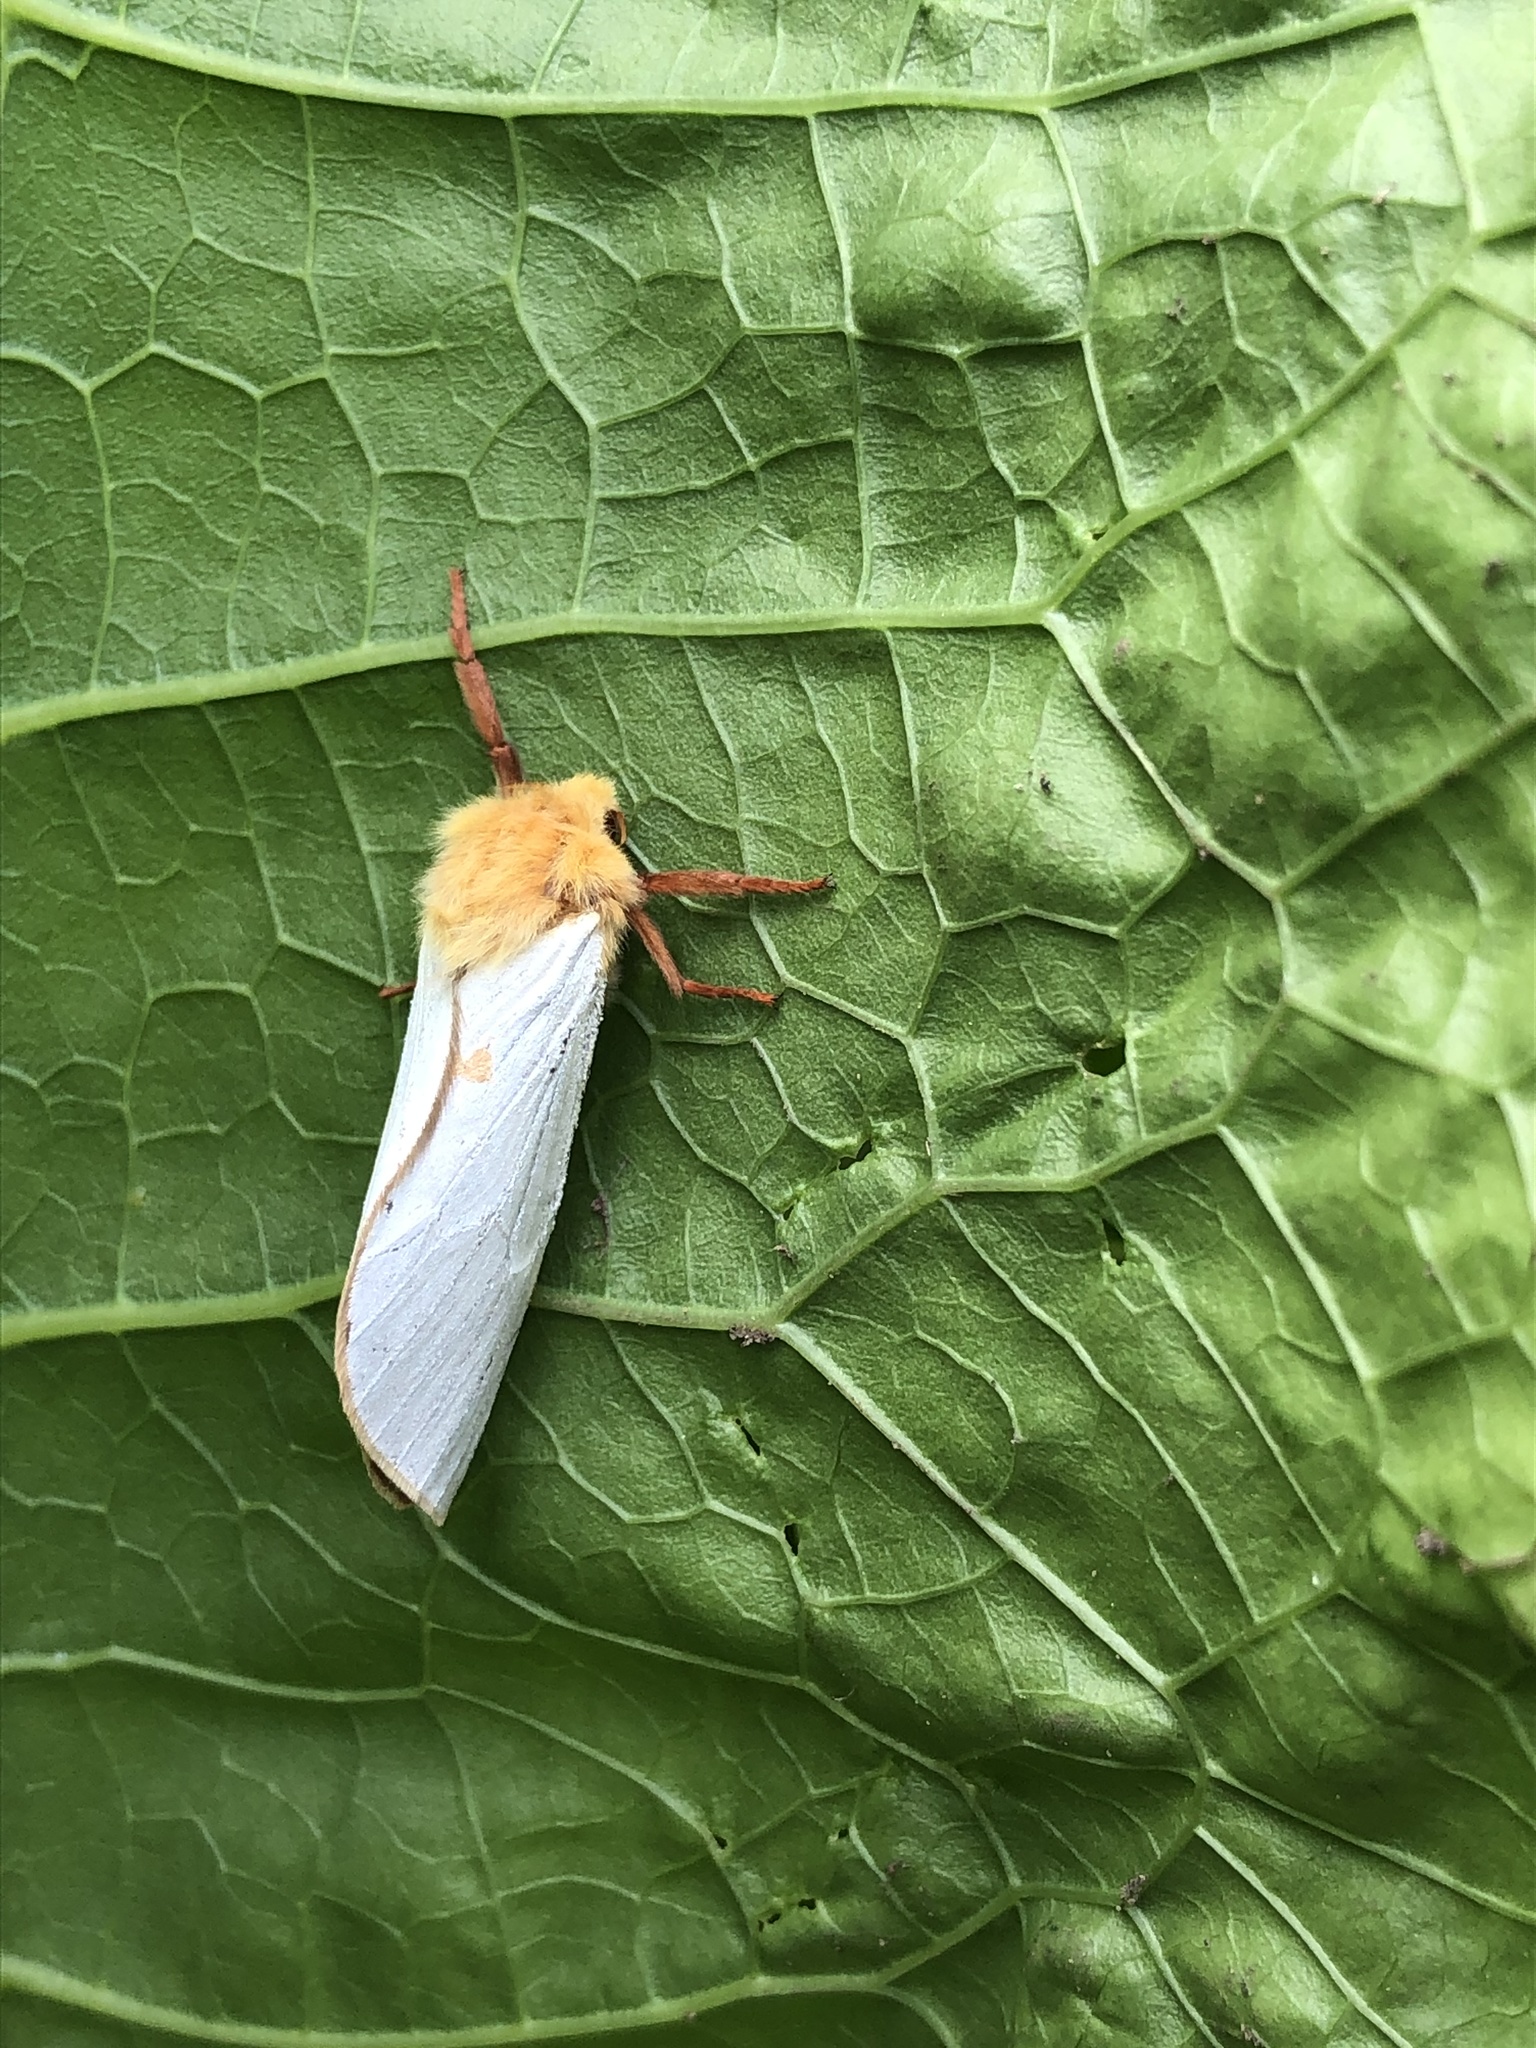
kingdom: Animalia
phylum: Arthropoda
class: Insecta
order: Lepidoptera
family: Hepialidae
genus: Hepialus
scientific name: Hepialus humuli
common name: Ghost moth
